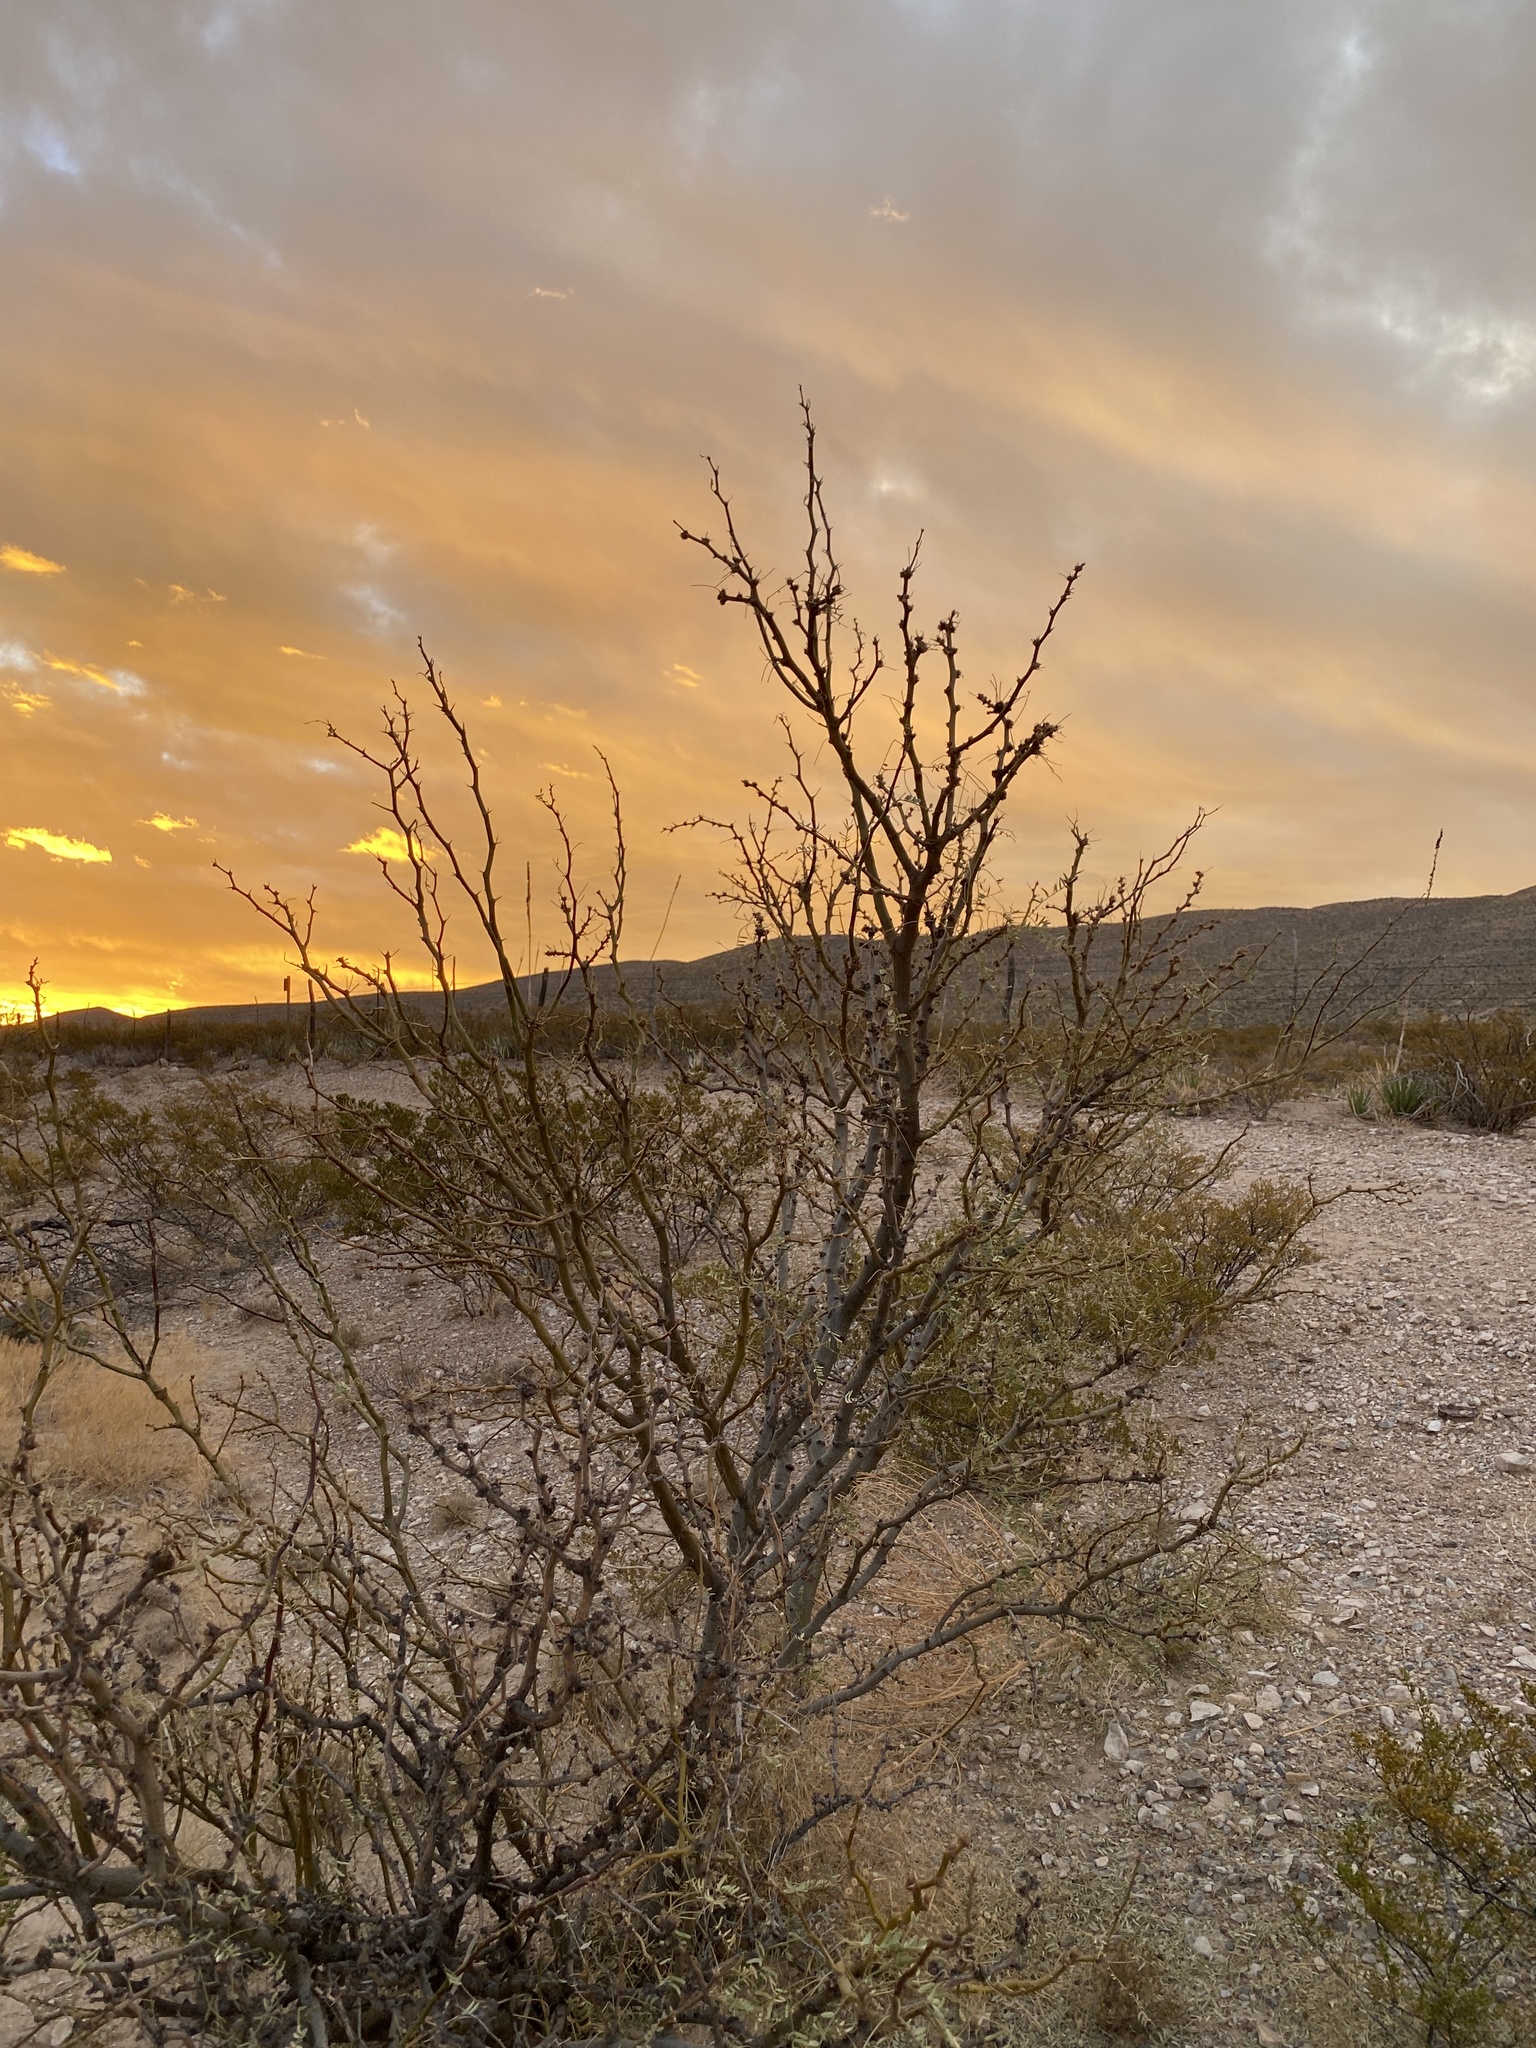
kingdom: Plantae
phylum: Tracheophyta
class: Magnoliopsida
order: Fabales
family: Fabaceae
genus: Prosopis
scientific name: Prosopis glandulosa
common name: Honey mesquite
